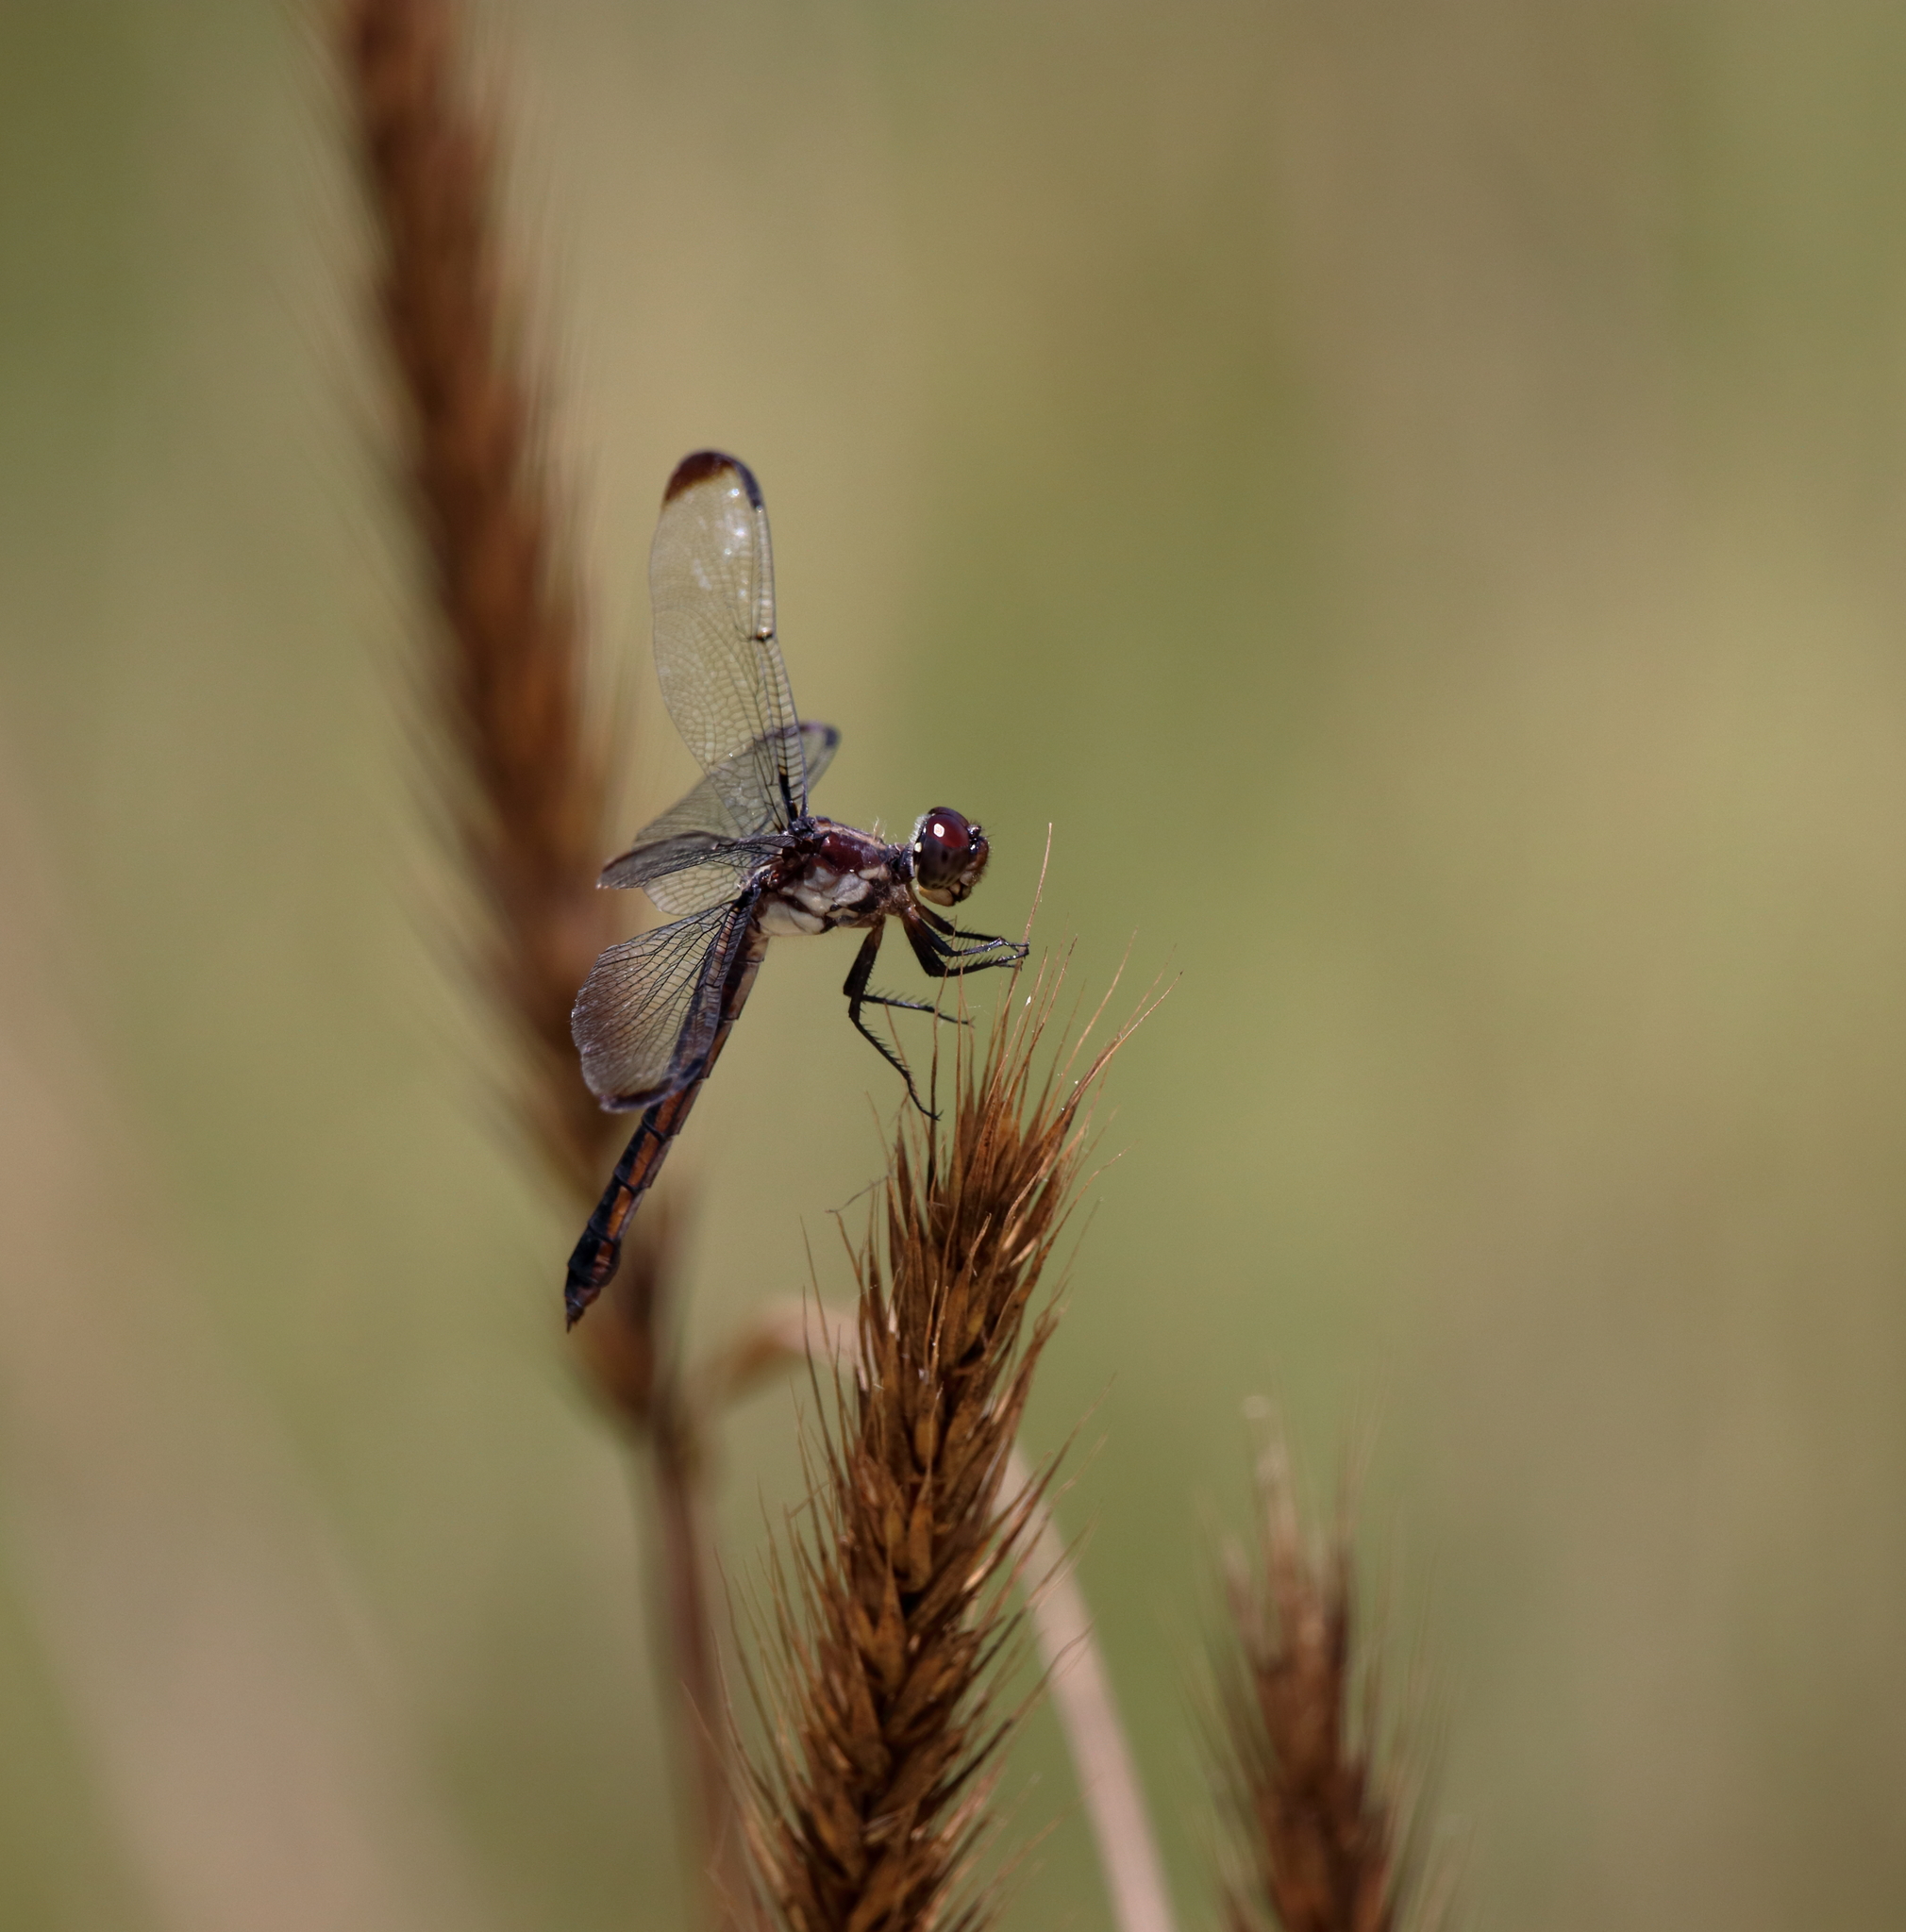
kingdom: Animalia
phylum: Arthropoda
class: Insecta
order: Odonata
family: Libellulidae
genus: Libellula
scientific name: Libellula incesta
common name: Slaty skimmer
